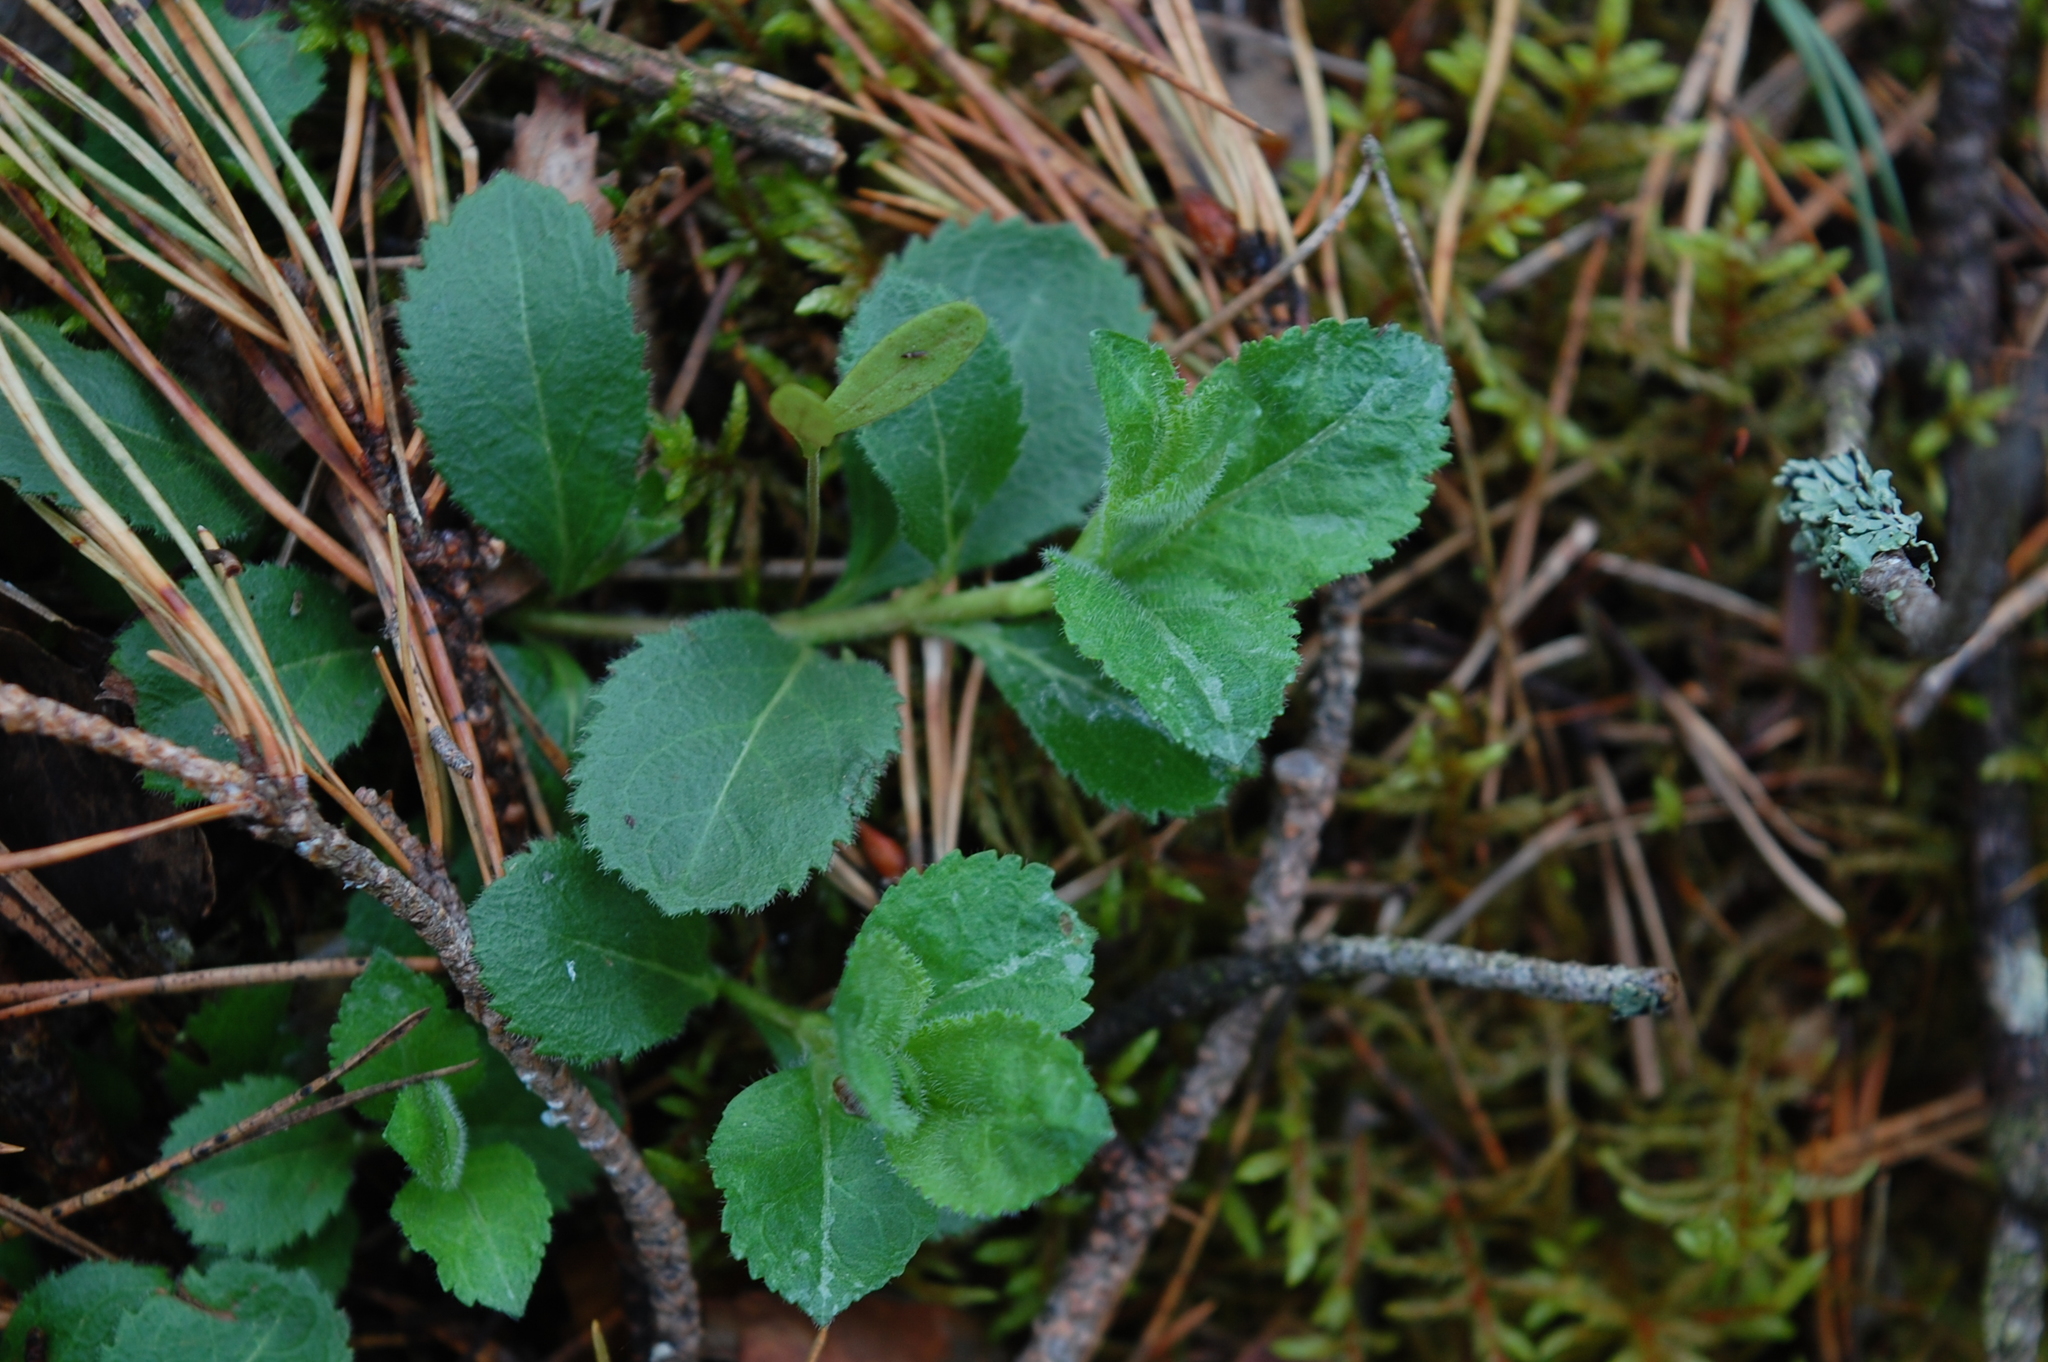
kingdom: Plantae
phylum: Tracheophyta
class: Magnoliopsida
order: Lamiales
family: Plantaginaceae
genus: Veronica
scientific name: Veronica officinalis
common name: Common speedwell
